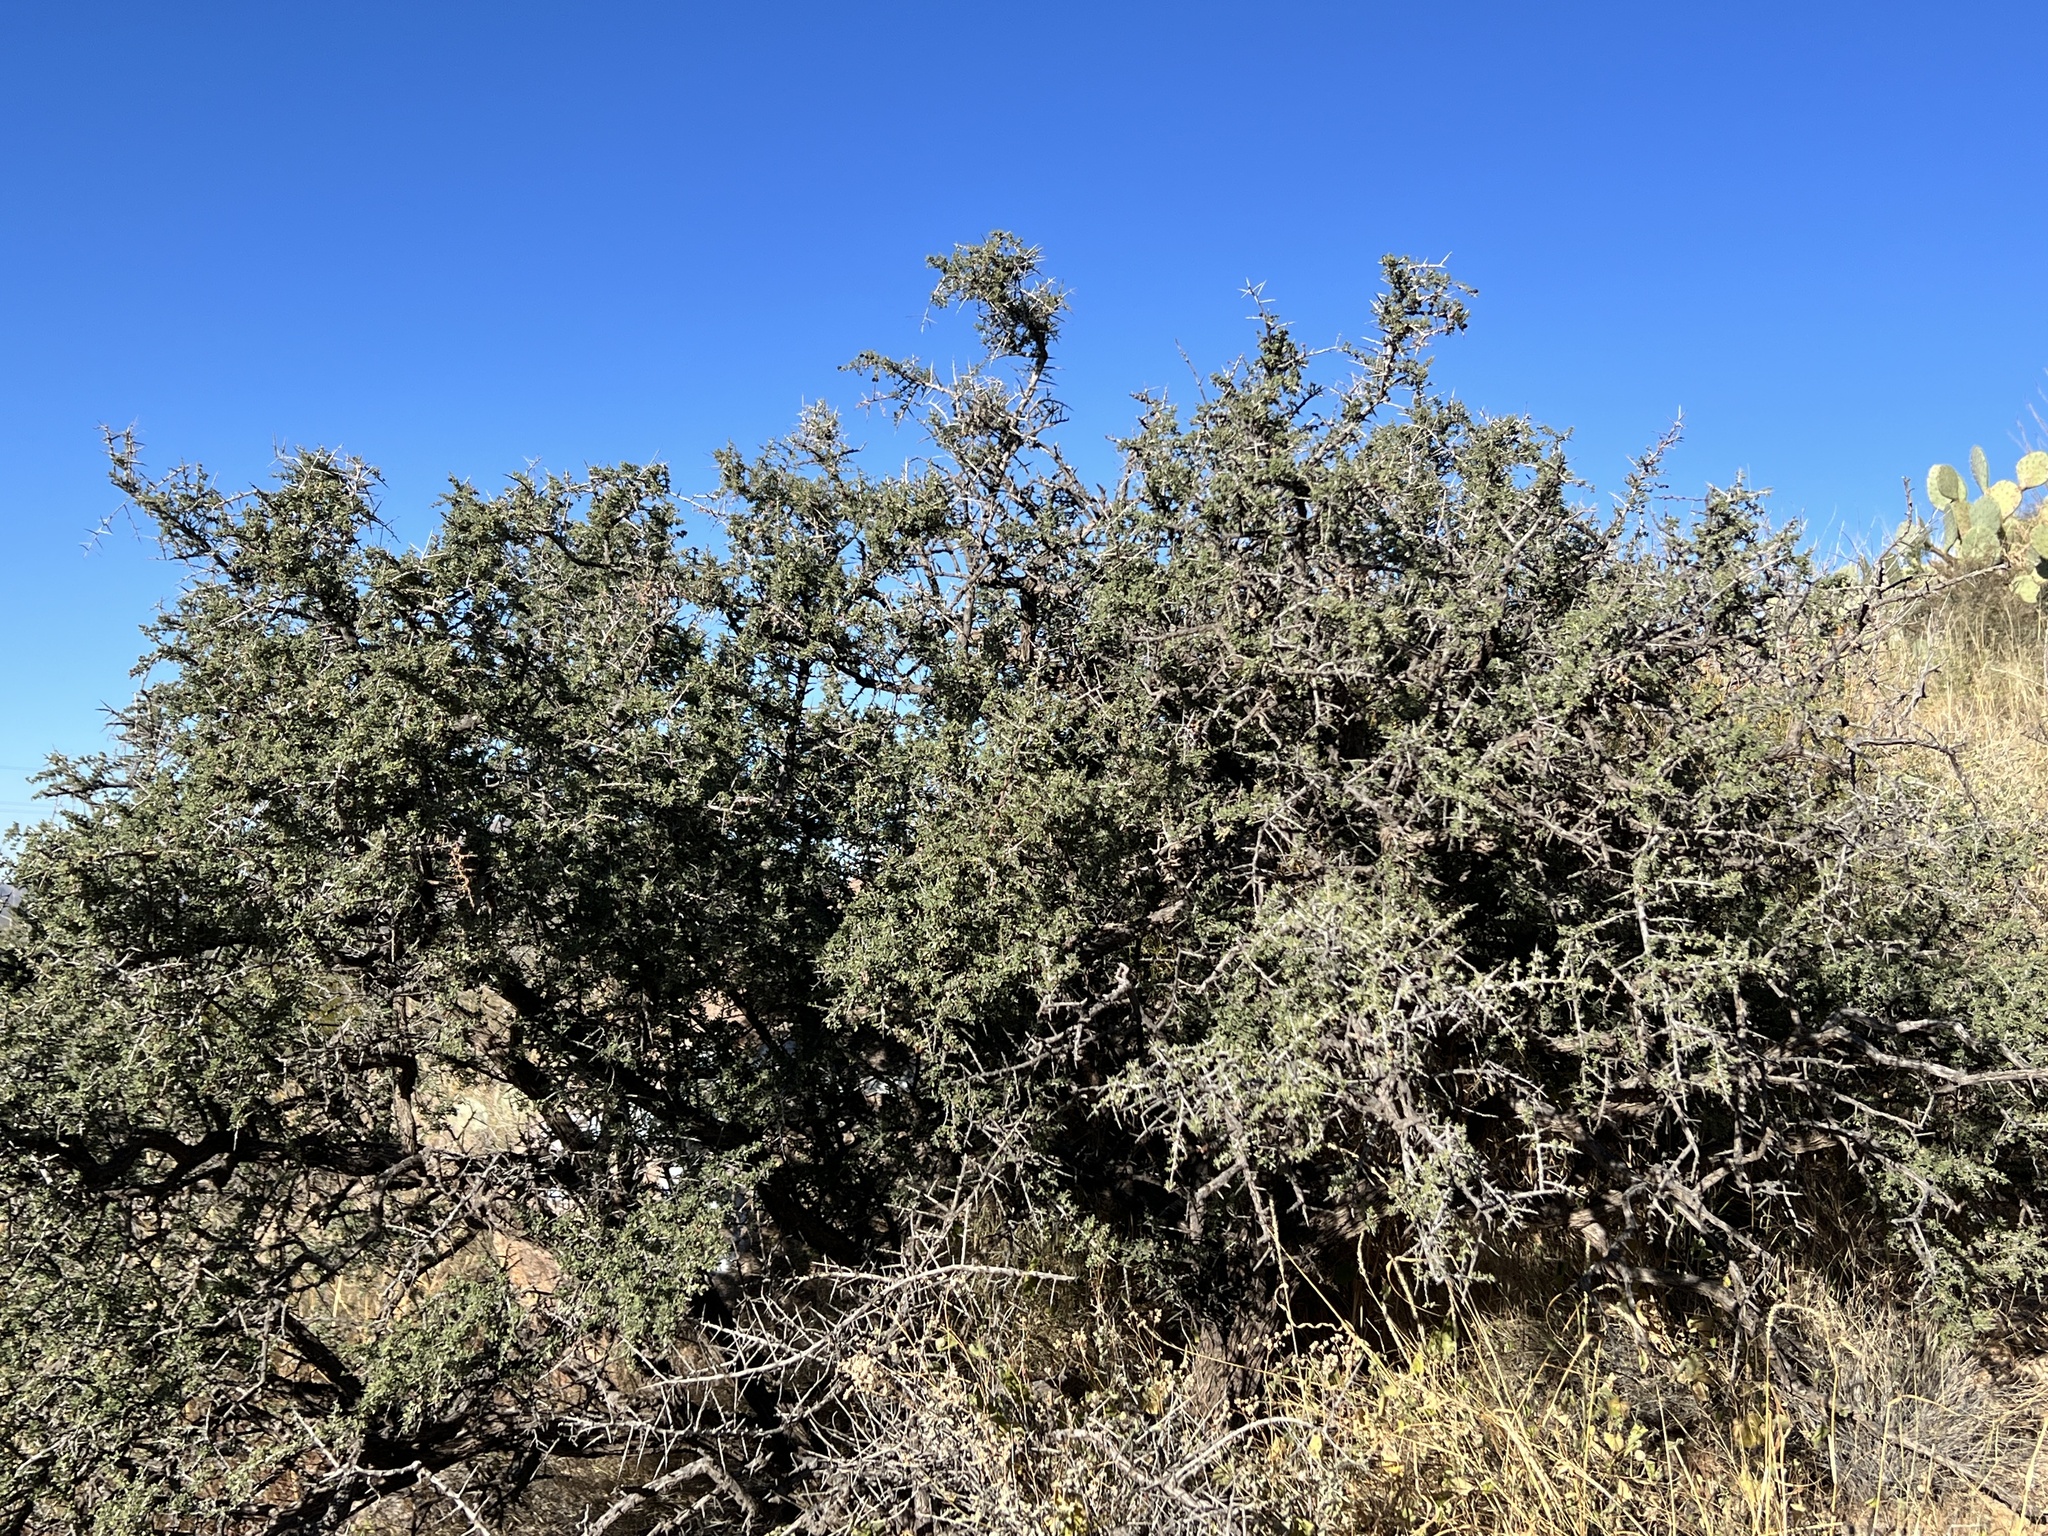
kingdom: Plantae
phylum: Tracheophyta
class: Magnoliopsida
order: Rosales
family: Rhamnaceae
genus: Condalia
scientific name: Condalia warnockii
